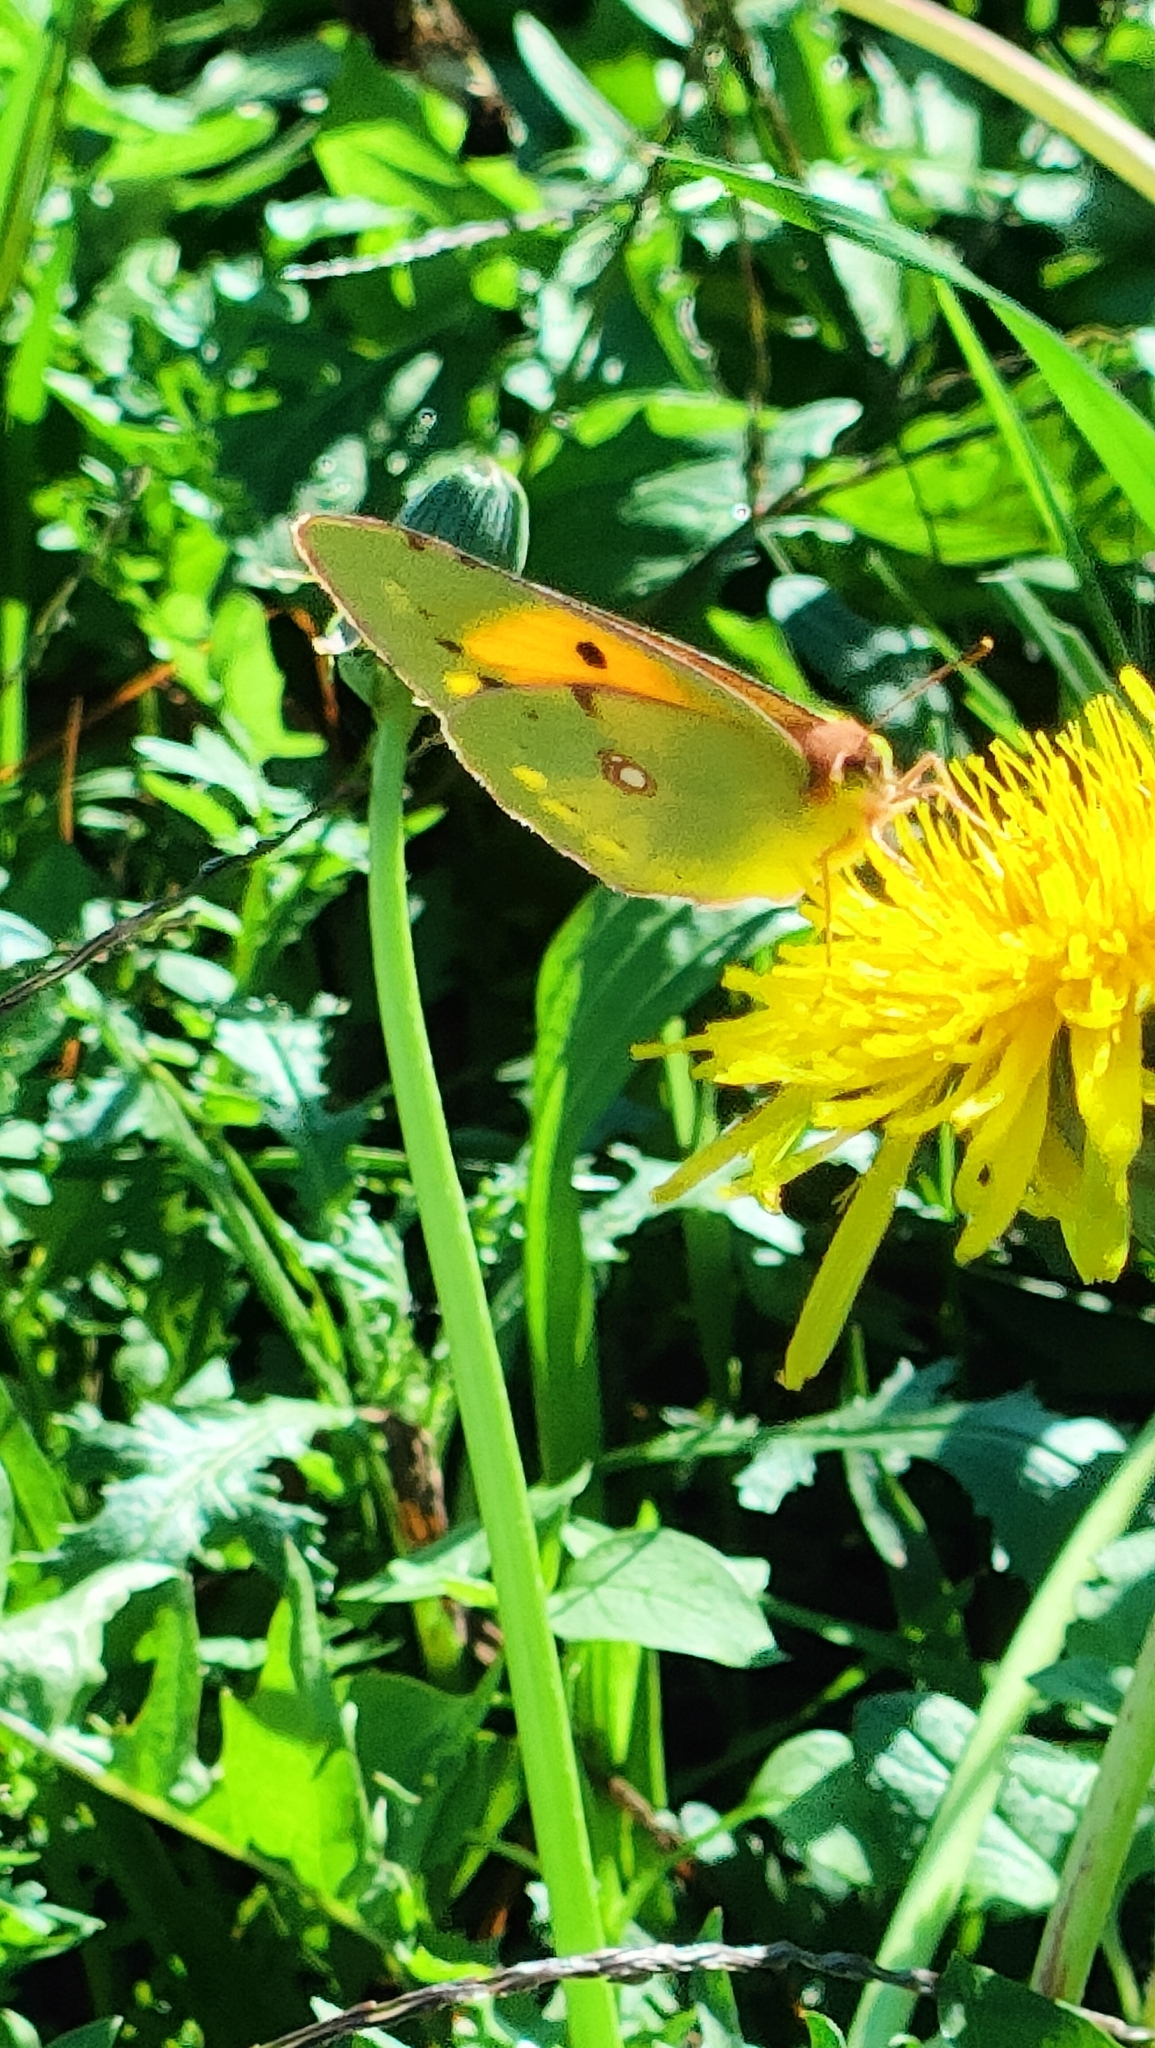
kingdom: Animalia
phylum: Arthropoda
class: Insecta
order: Lepidoptera
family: Pieridae
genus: Colias
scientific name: Colias croceus
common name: Clouded yellow
